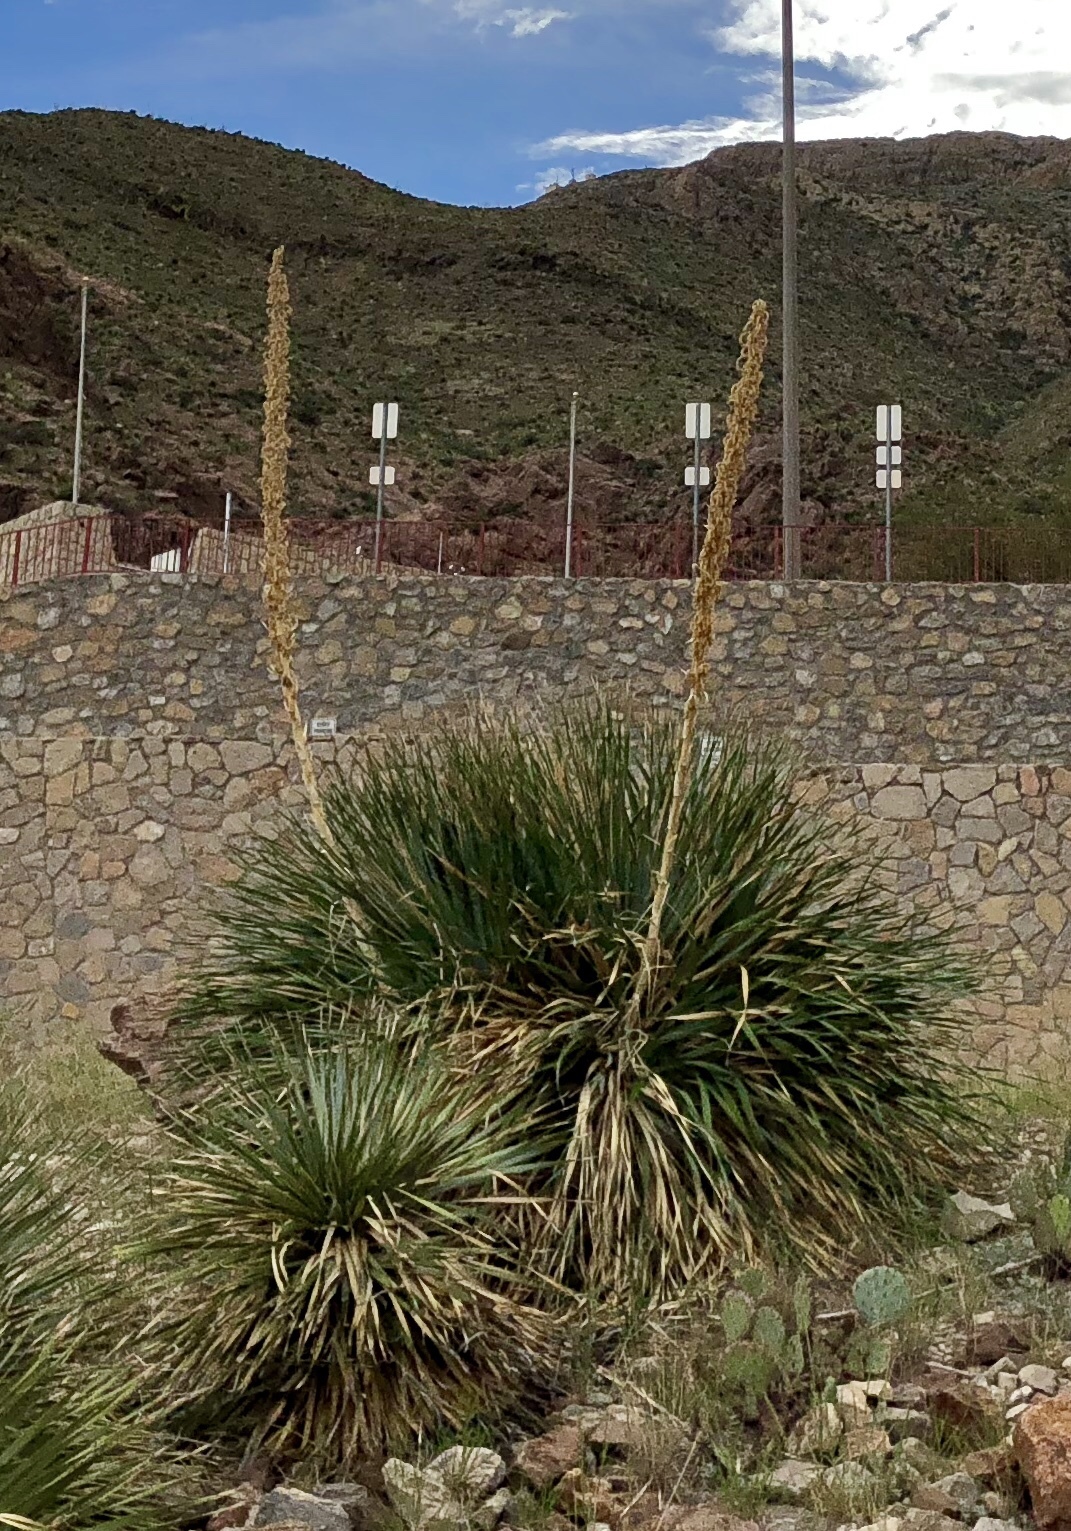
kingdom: Plantae
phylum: Tracheophyta
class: Liliopsida
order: Asparagales
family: Asparagaceae
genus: Dasylirion
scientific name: Dasylirion wheeleri
